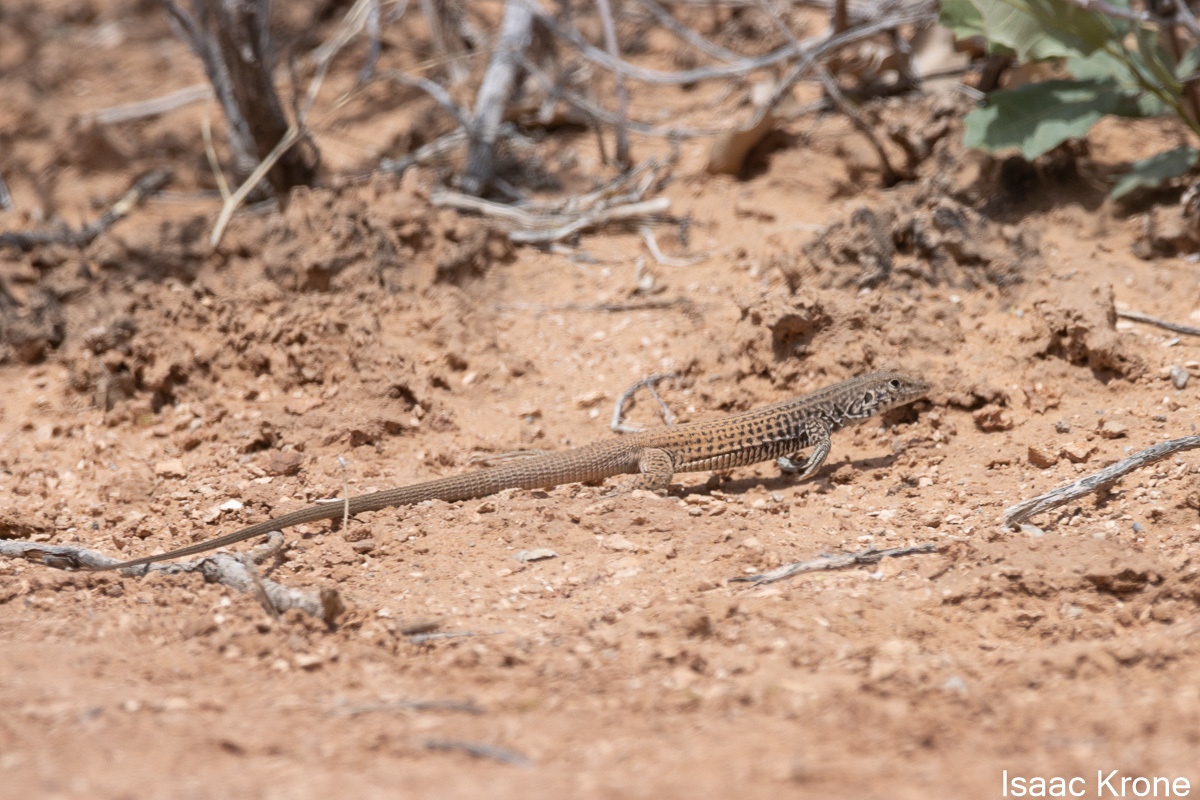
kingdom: Animalia
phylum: Chordata
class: Squamata
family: Teiidae
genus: Aspidoscelis
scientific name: Aspidoscelis tigris
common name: Tiger whiptail
